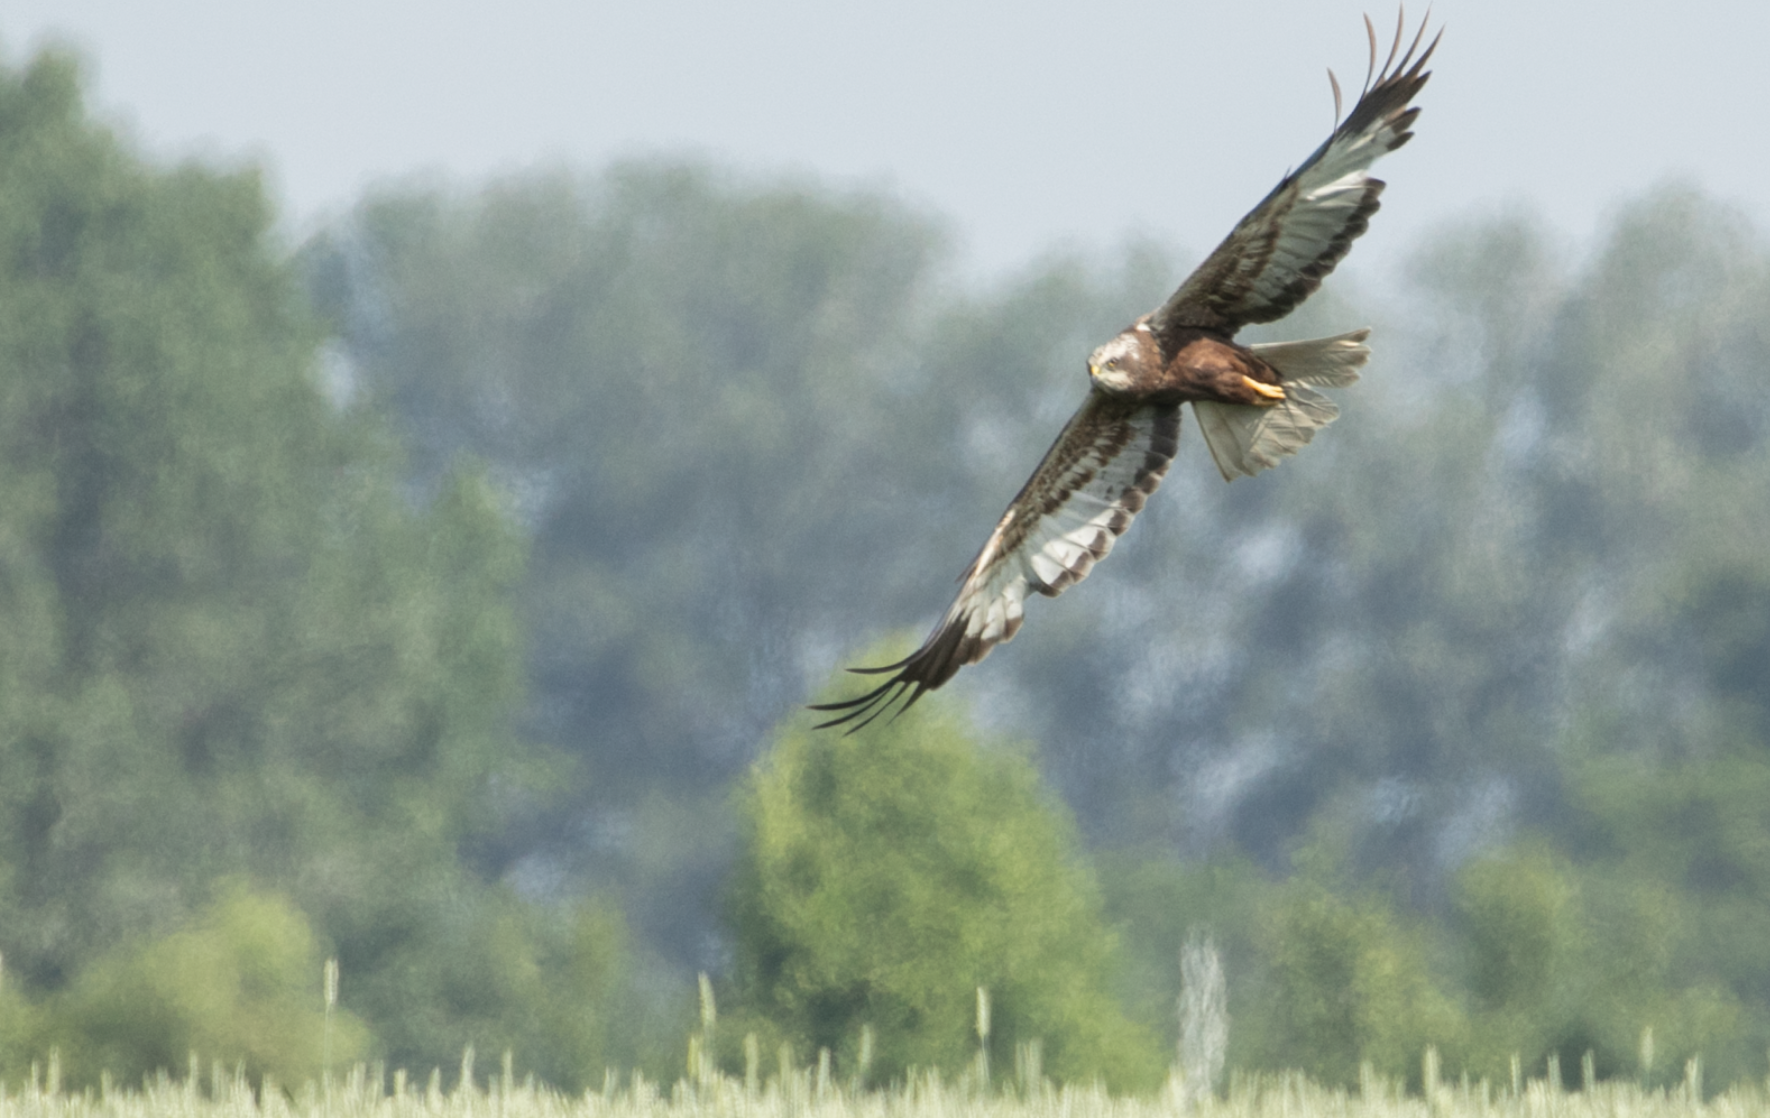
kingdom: Animalia
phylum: Chordata
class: Aves
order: Accipitriformes
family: Accipitridae
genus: Circus
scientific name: Circus aeruginosus
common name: Western marsh harrier
